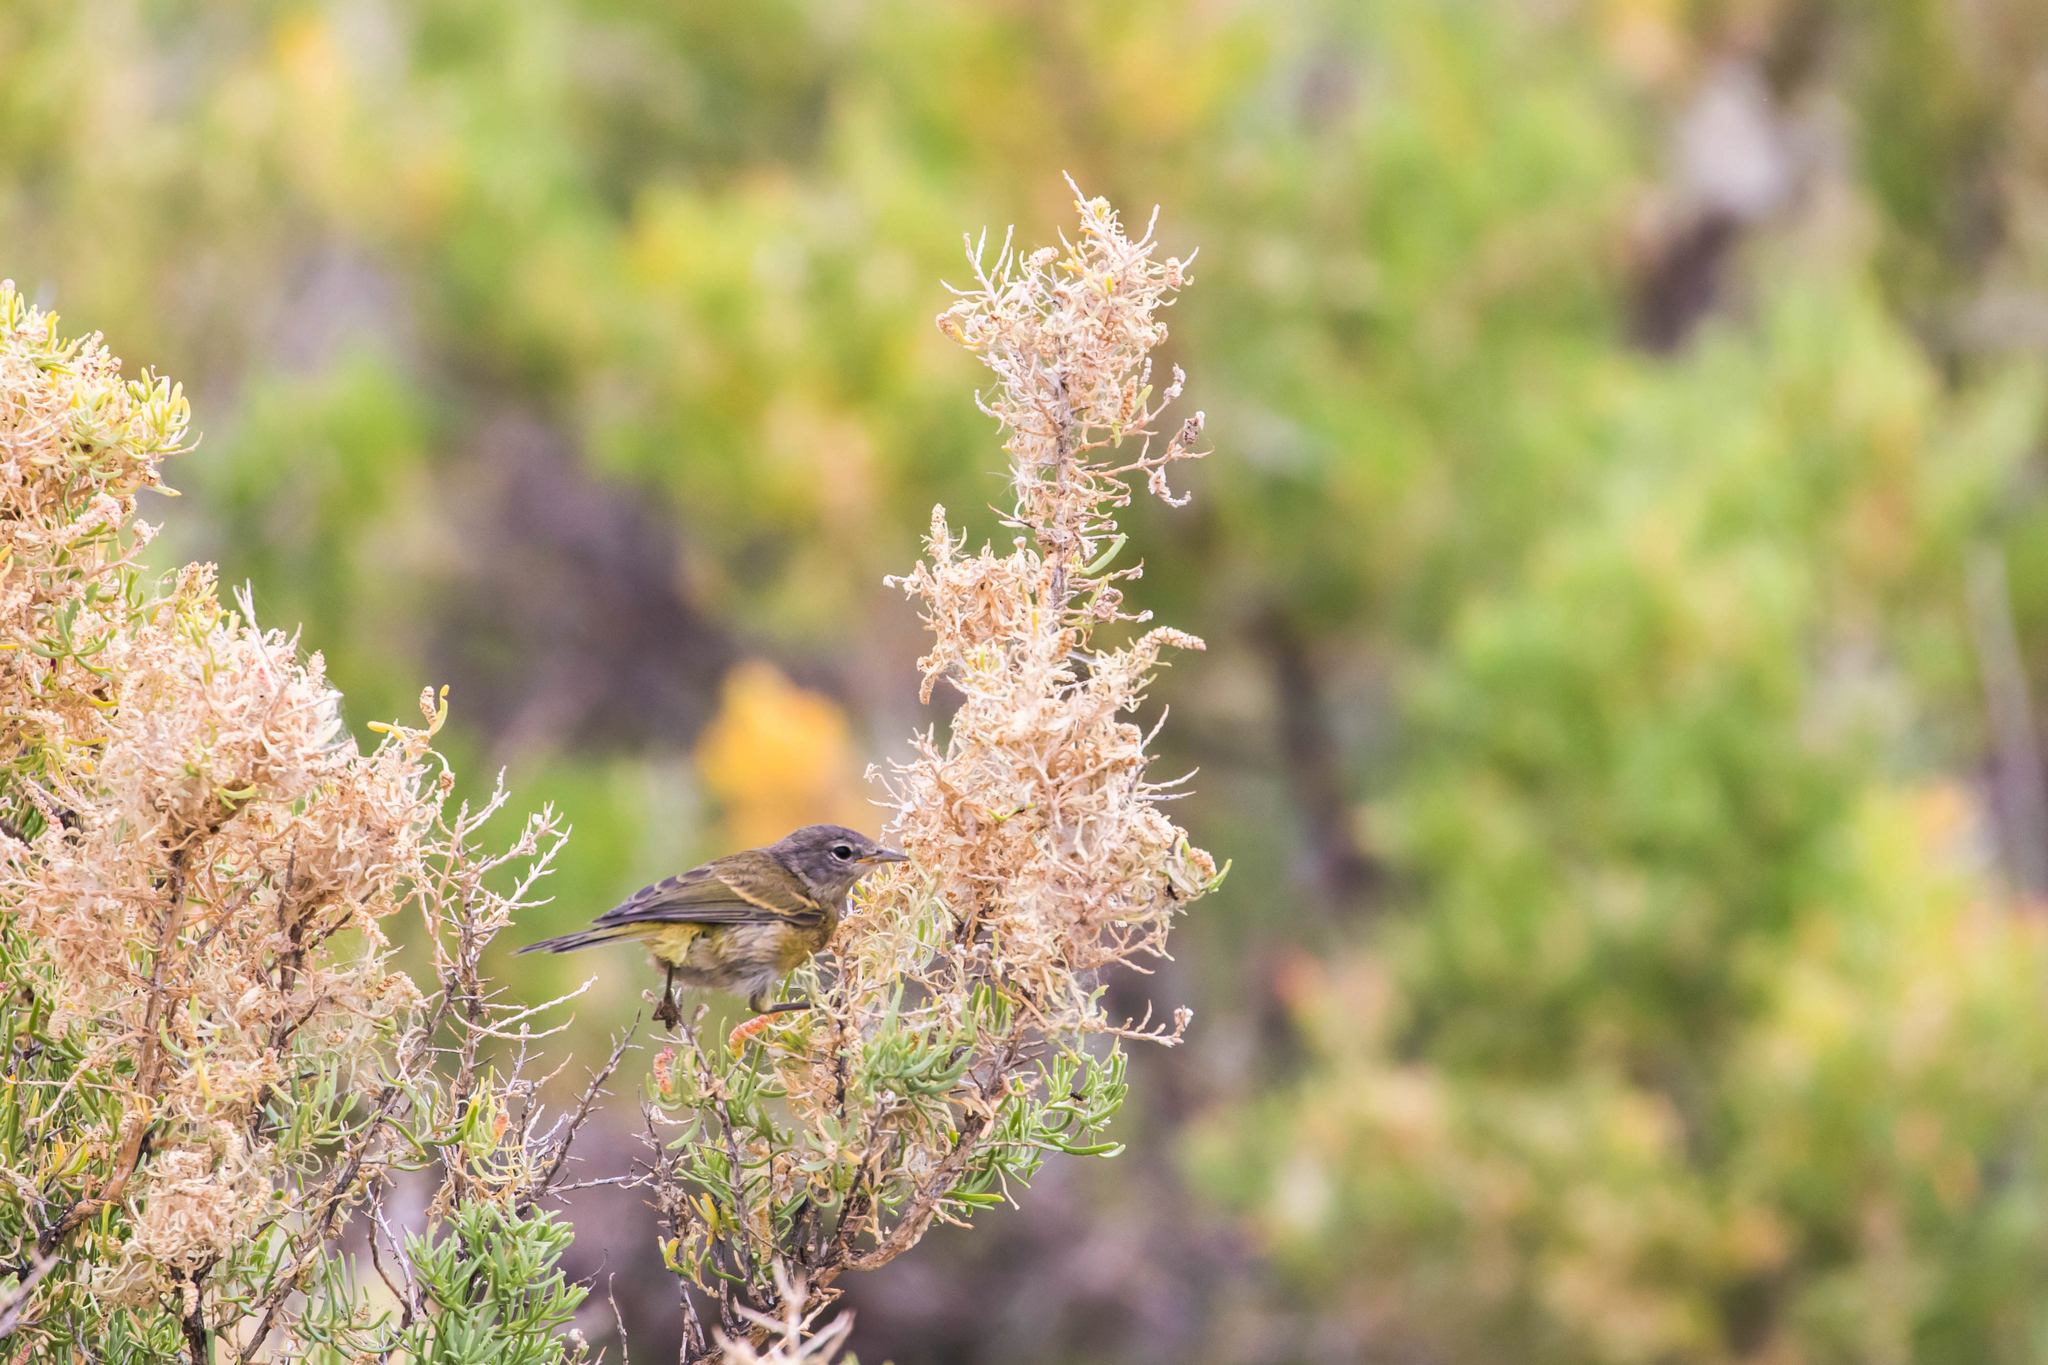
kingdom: Animalia
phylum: Chordata
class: Aves
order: Passeriformes
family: Parulidae
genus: Leiothlypis
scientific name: Leiothlypis celata
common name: Orange-crowned warbler
